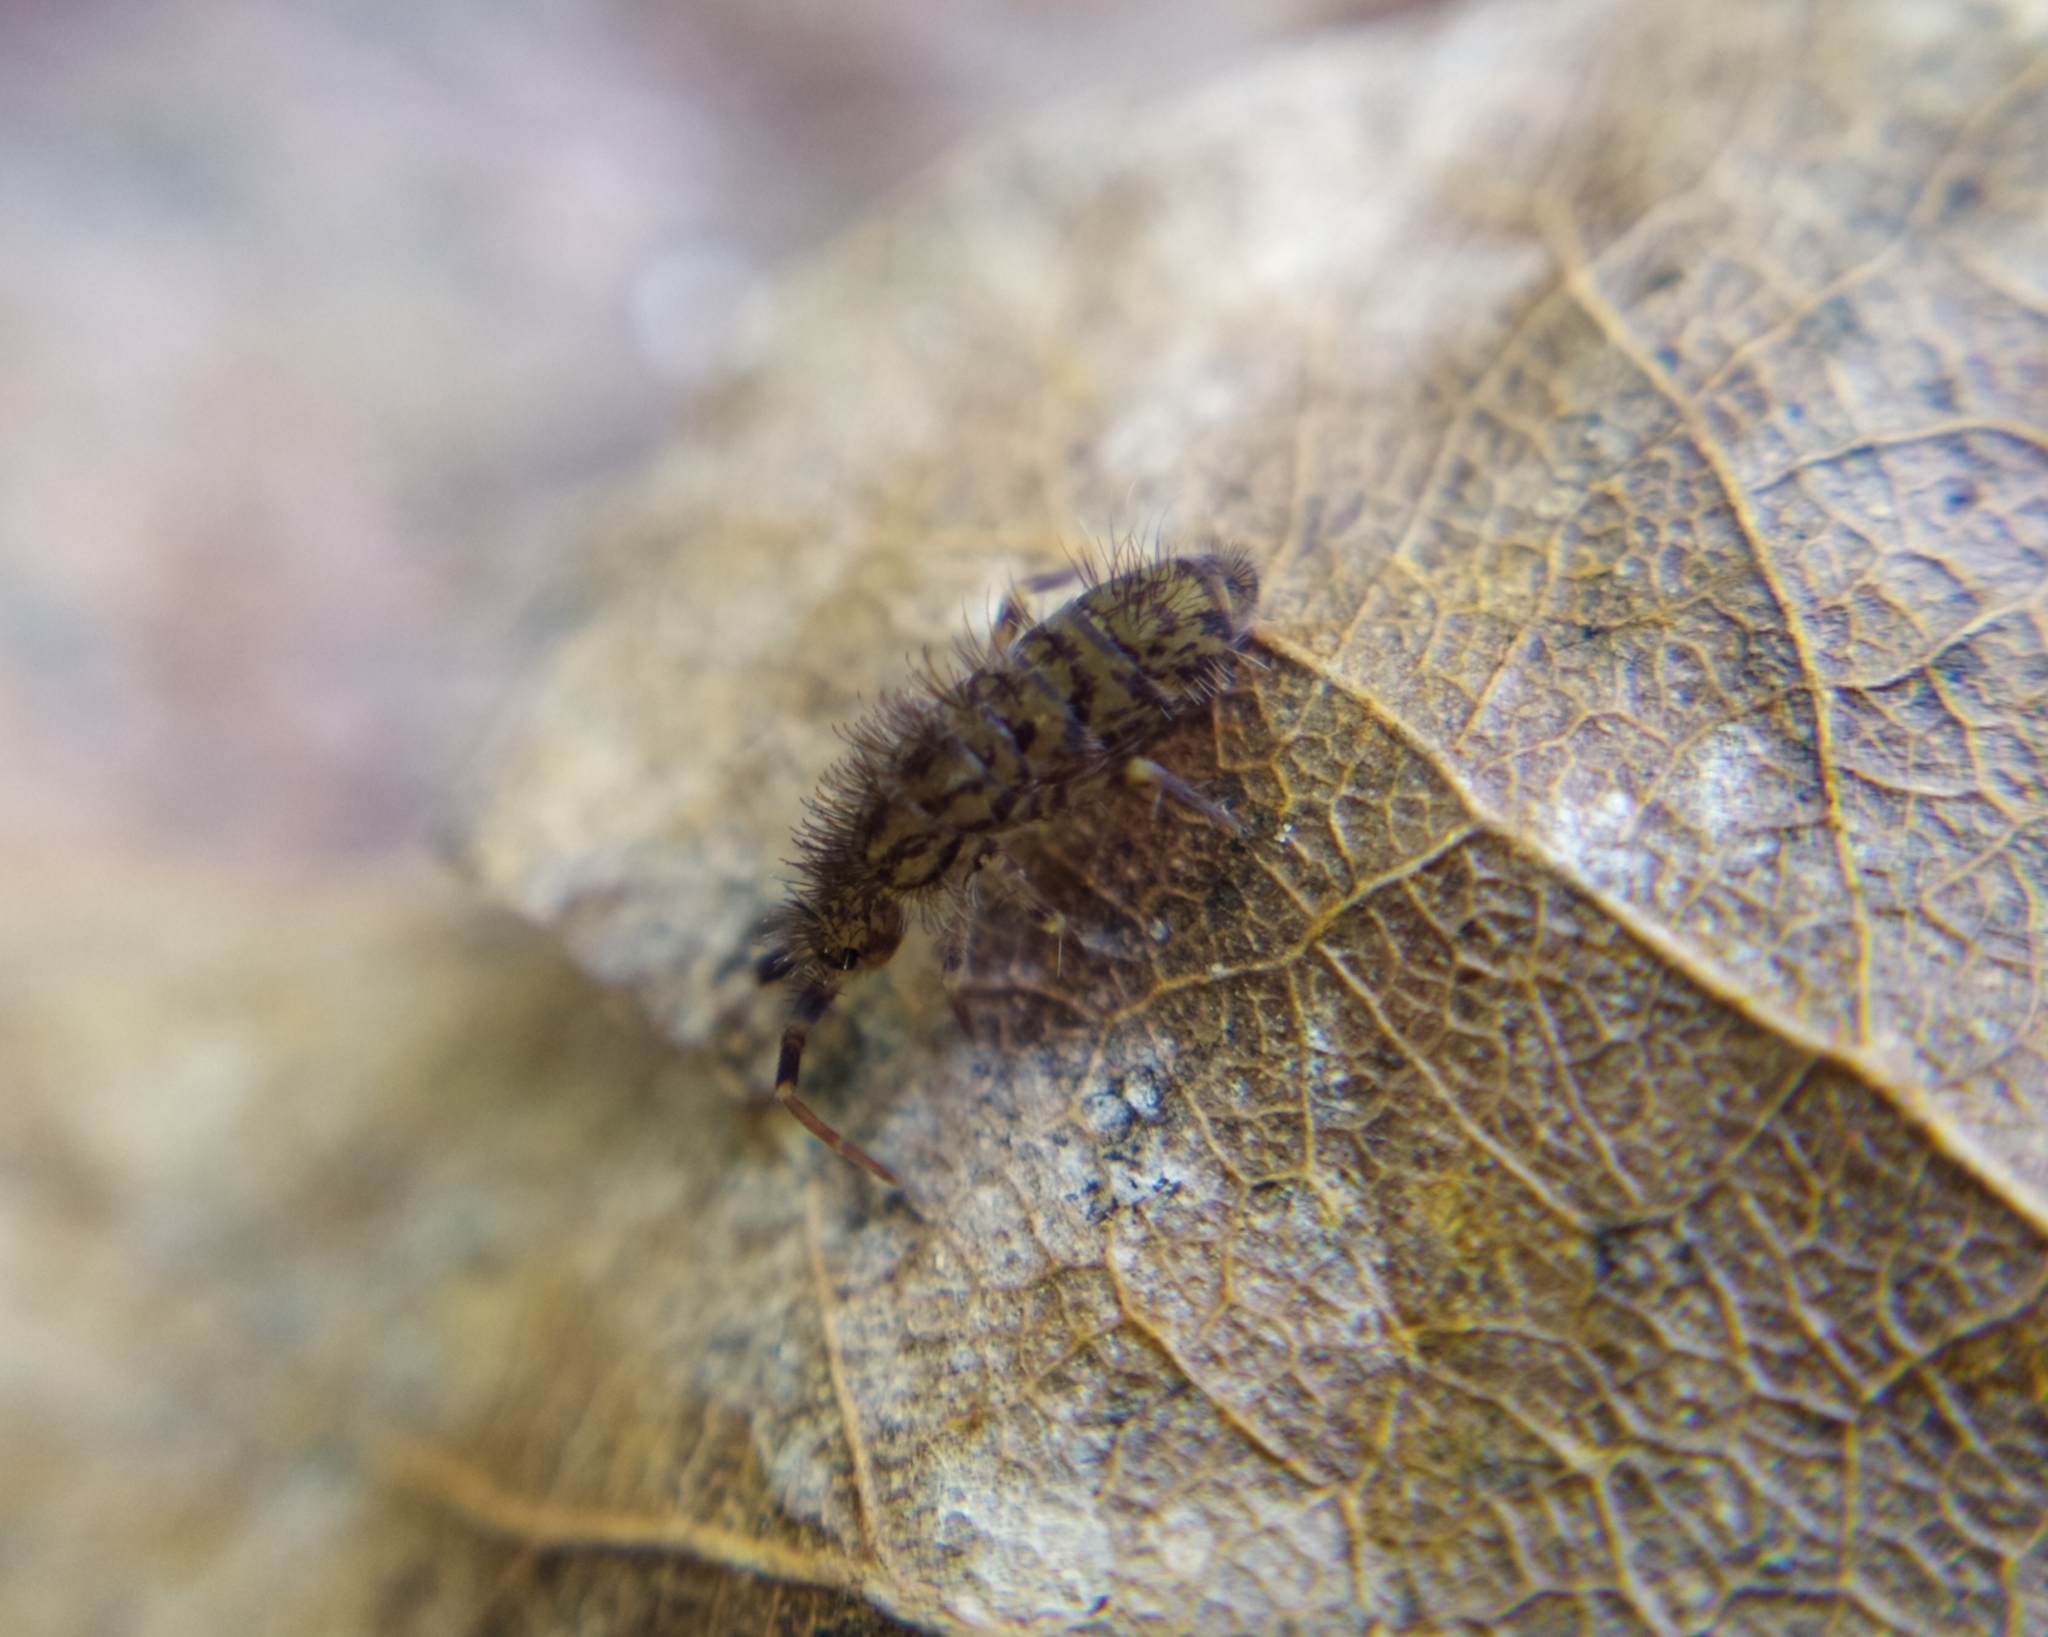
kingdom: Animalia
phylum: Arthropoda
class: Collembola
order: Entomobryomorpha
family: Orchesellidae
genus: Orchesella
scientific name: Orchesella villosa
